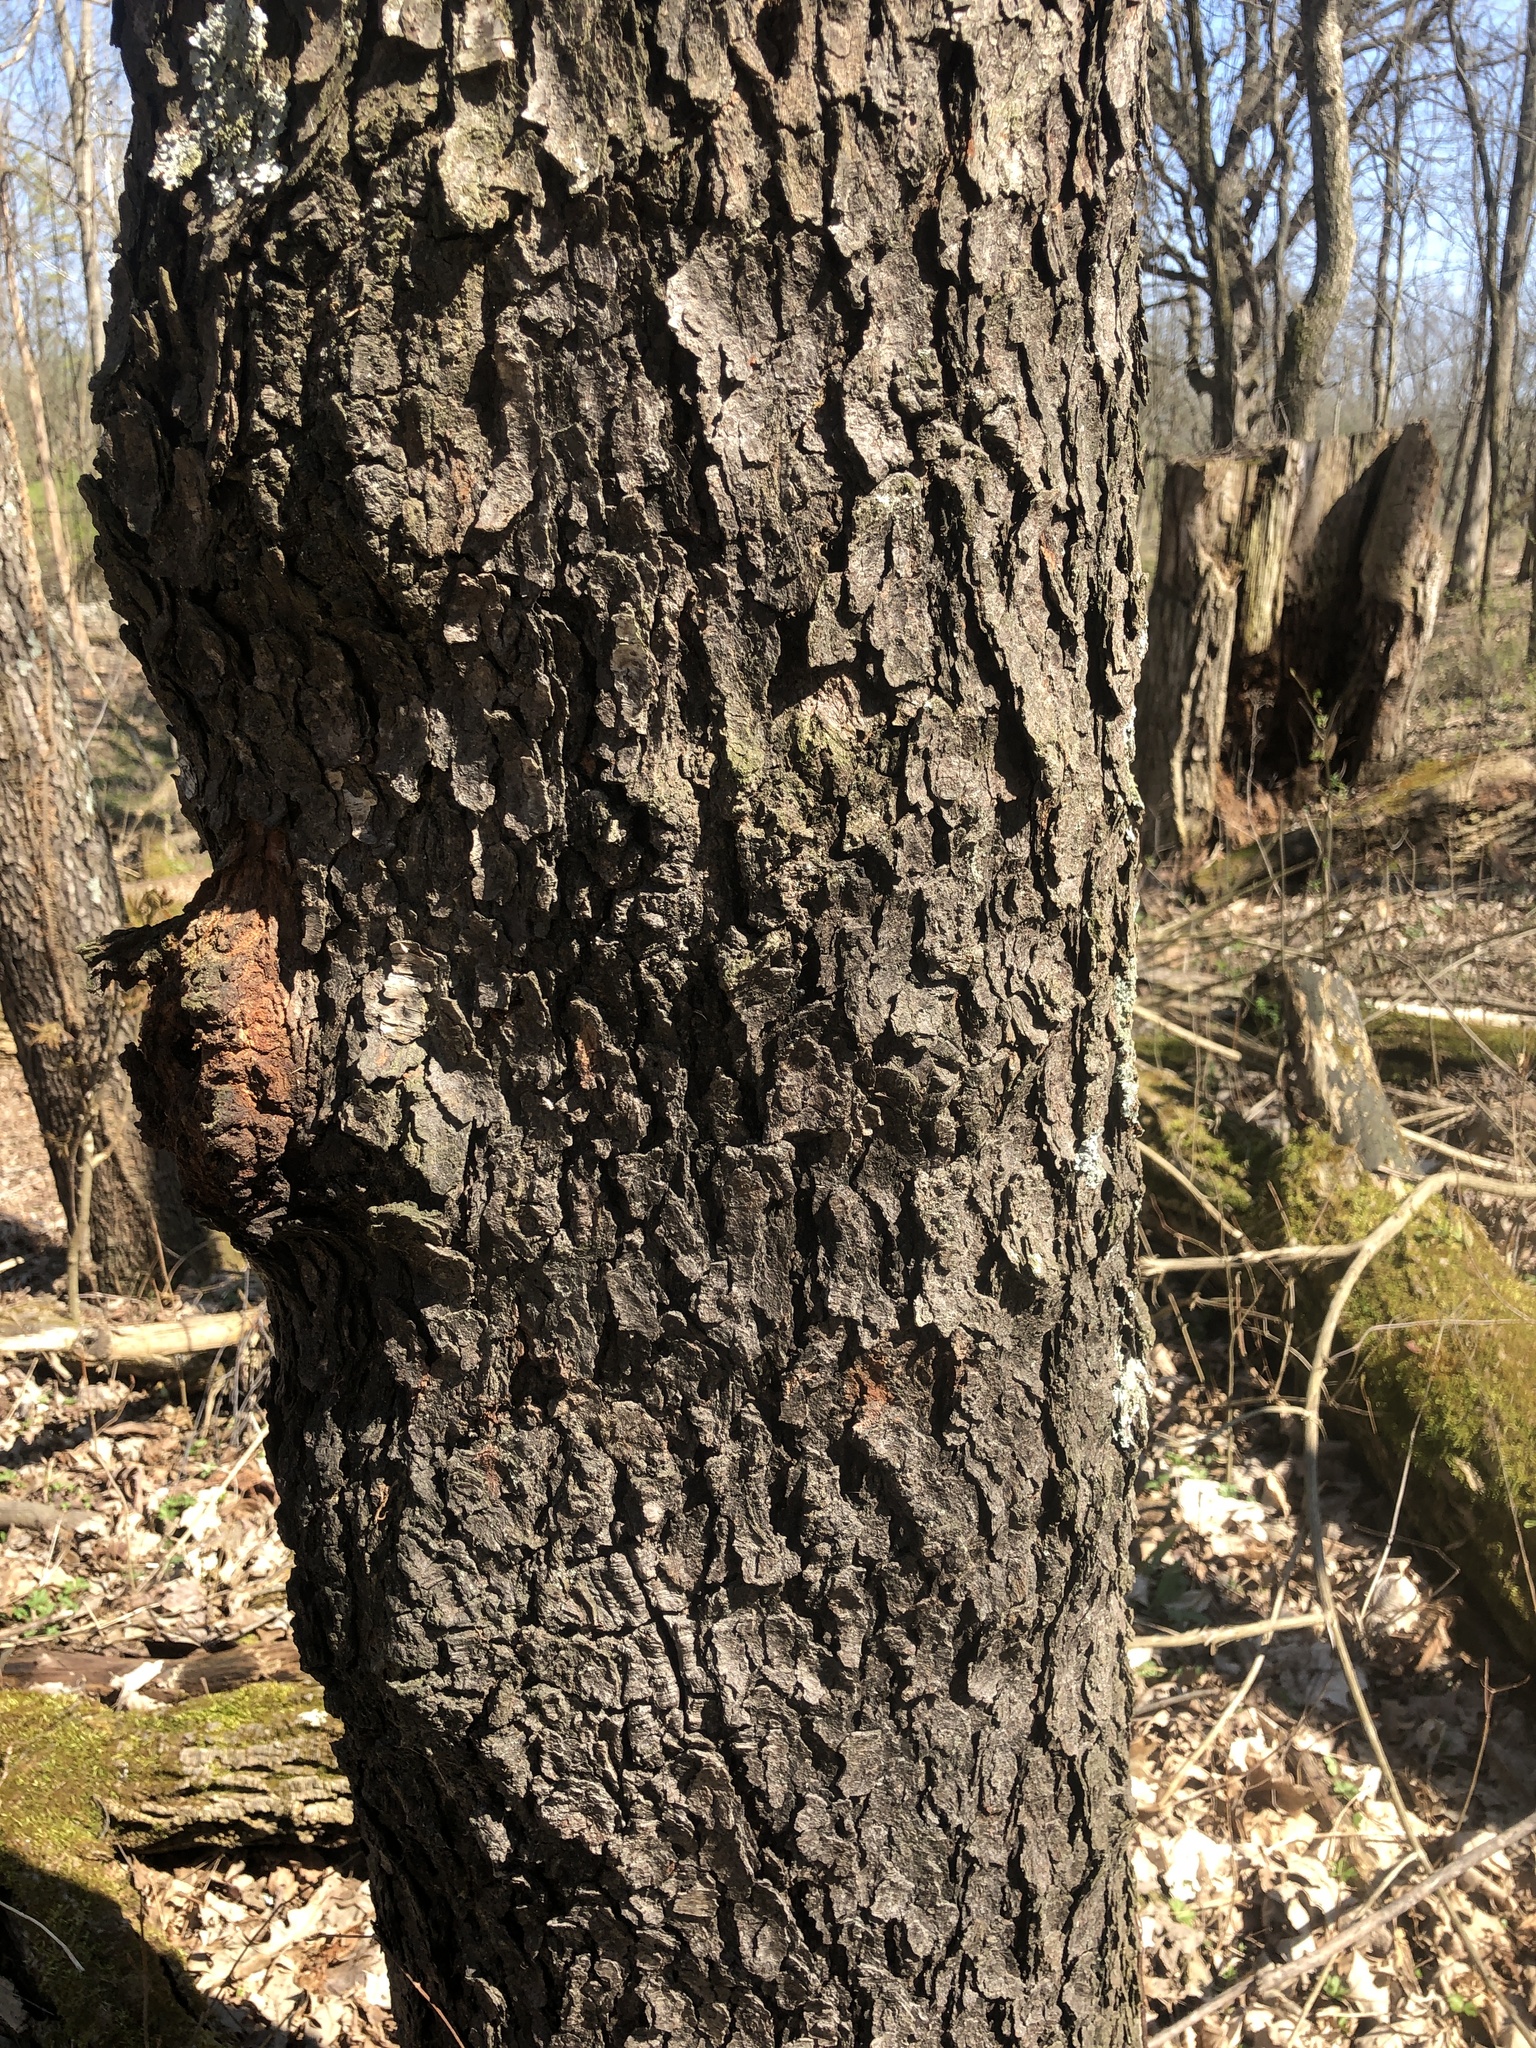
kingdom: Plantae
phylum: Tracheophyta
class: Magnoliopsida
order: Rosales
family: Rosaceae
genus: Prunus
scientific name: Prunus serotina
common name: Black cherry
